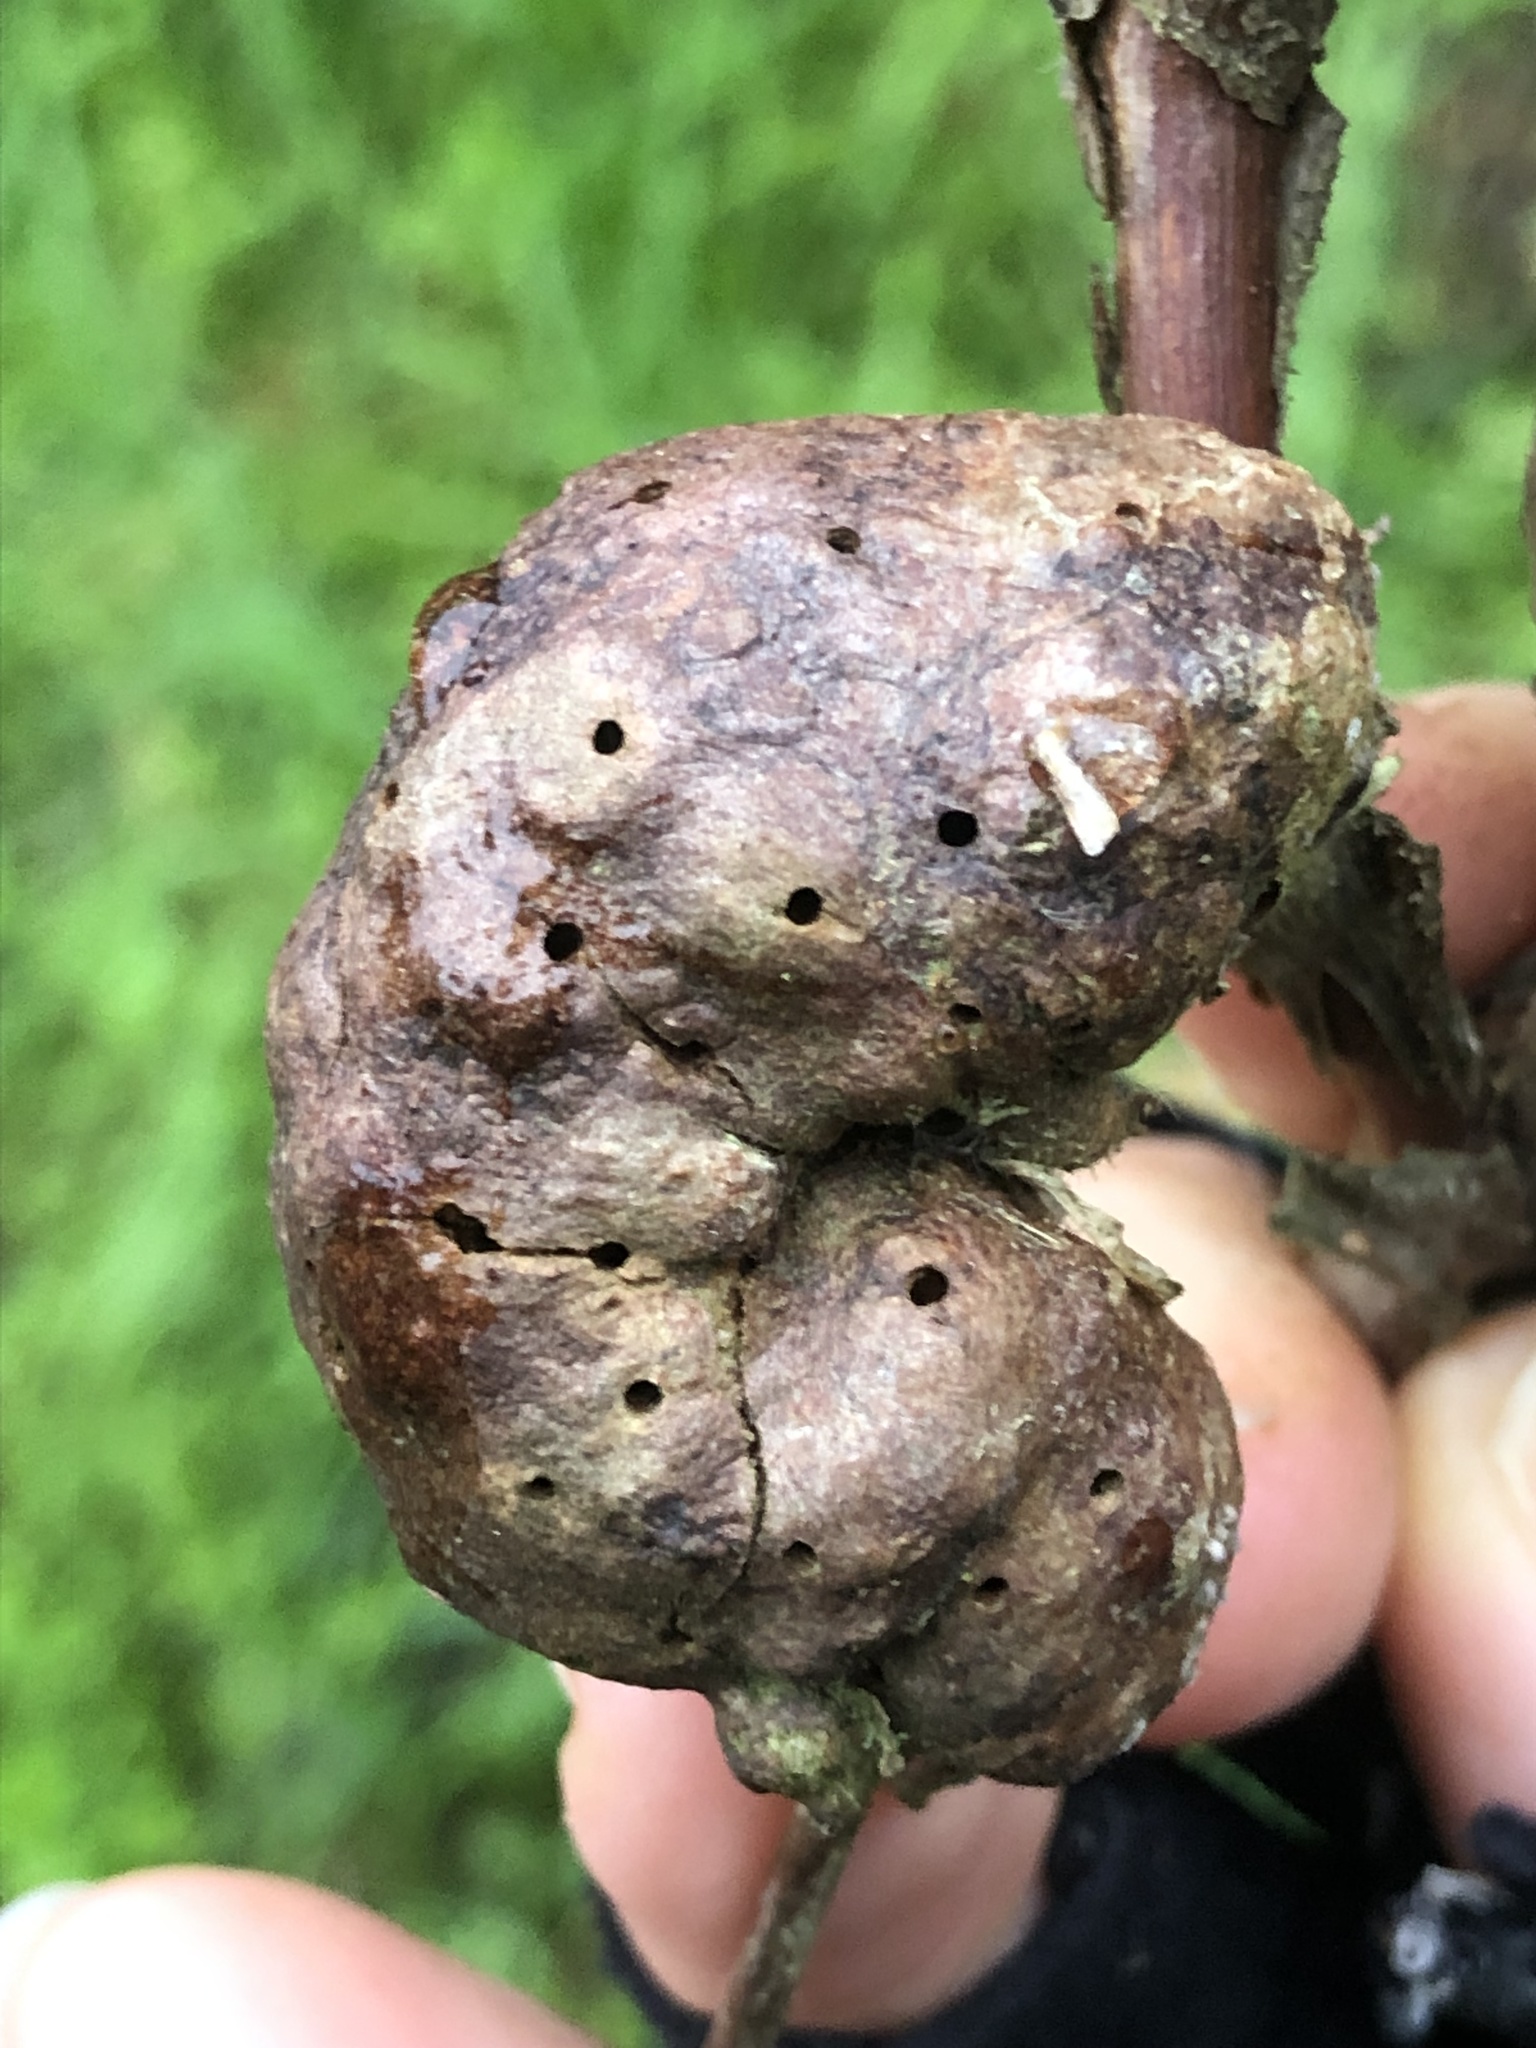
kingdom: Animalia
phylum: Arthropoda
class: Insecta
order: Hymenoptera
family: Cynipidae
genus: Diastrophus
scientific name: Diastrophus
